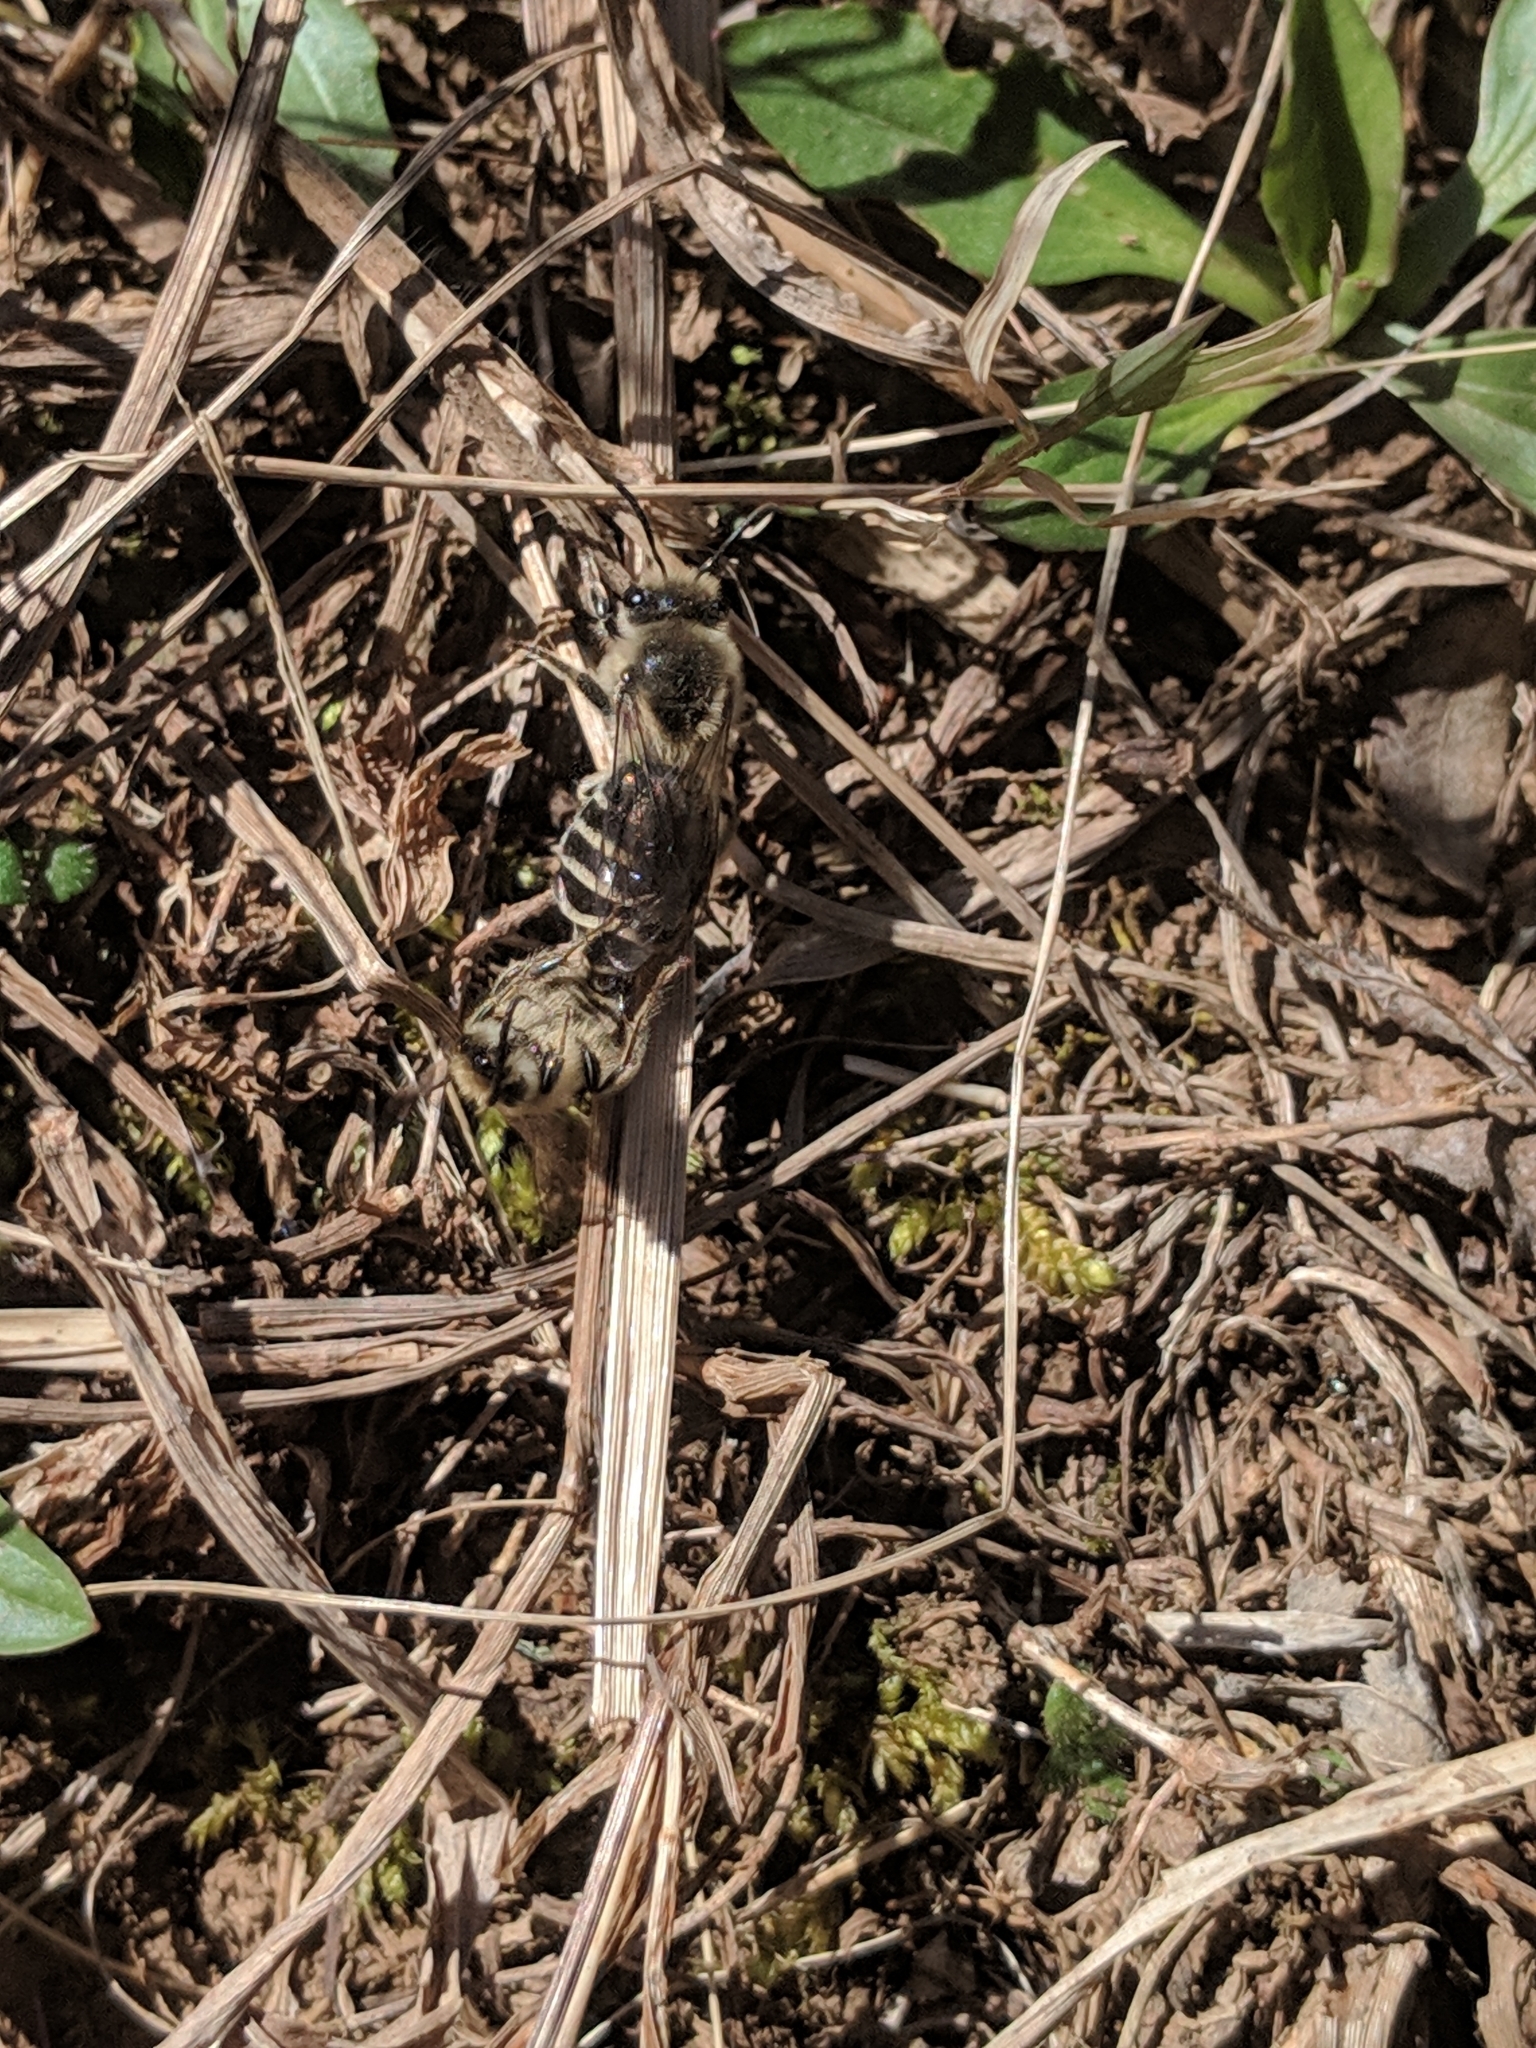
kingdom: Animalia
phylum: Arthropoda
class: Insecta
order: Hymenoptera
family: Colletidae
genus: Colletes
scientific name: Colletes inaequalis
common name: Unequal cellophane bee
